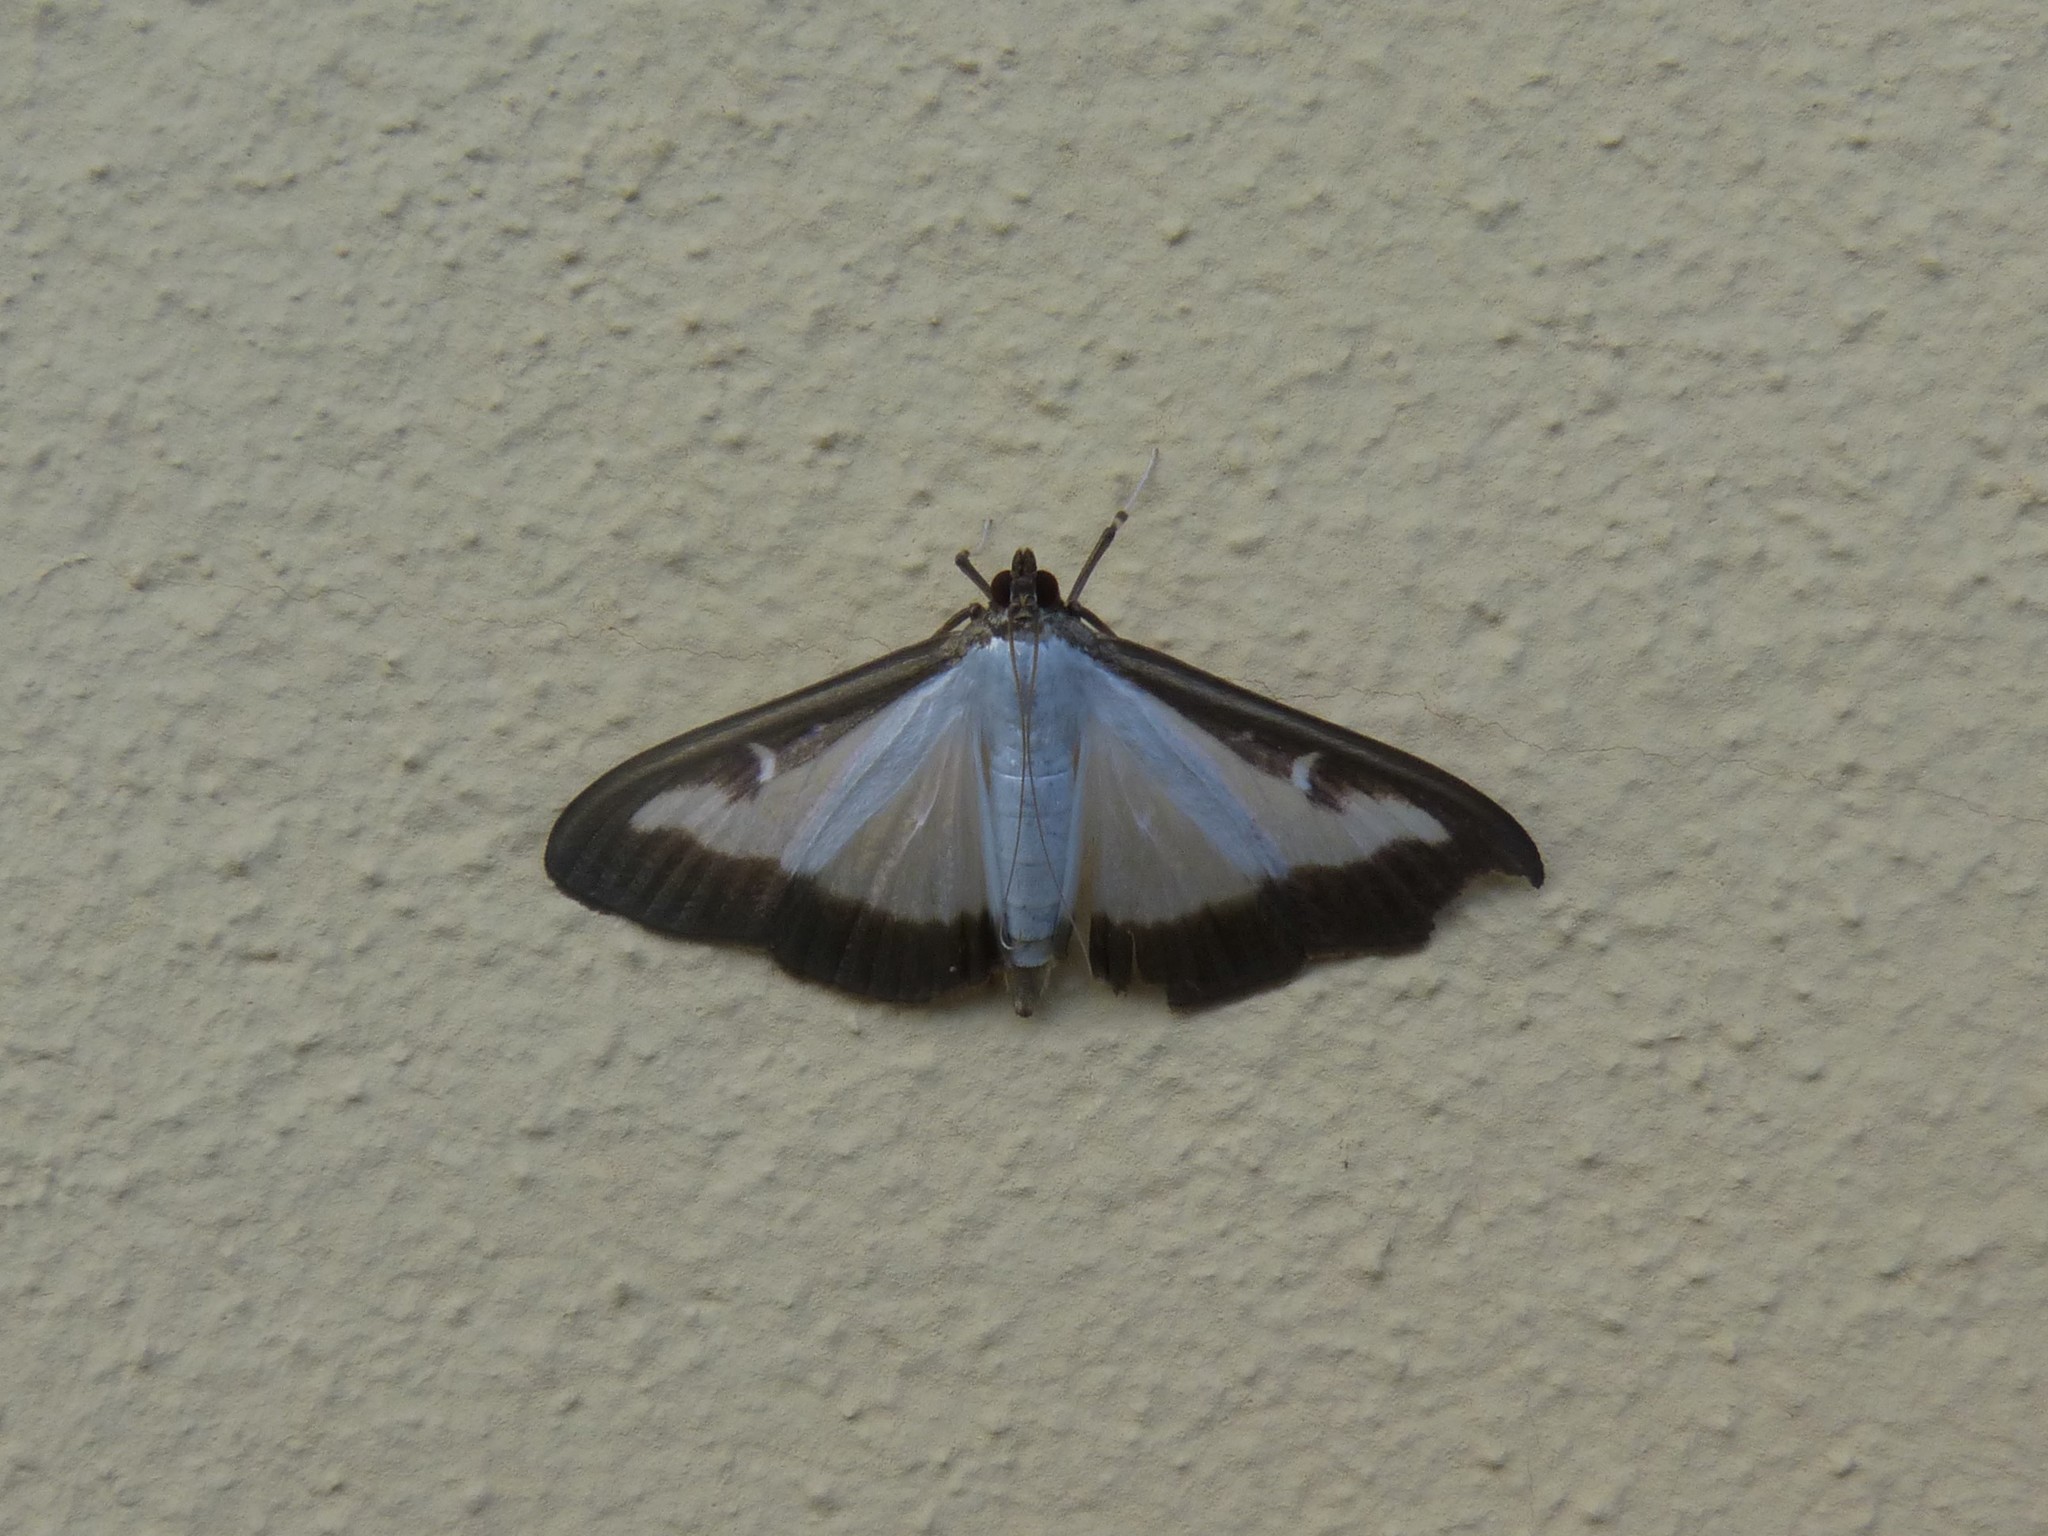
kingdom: Animalia
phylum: Arthropoda
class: Insecta
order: Lepidoptera
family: Crambidae
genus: Cydalima
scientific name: Cydalima perspectalis
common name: Box tree moth
